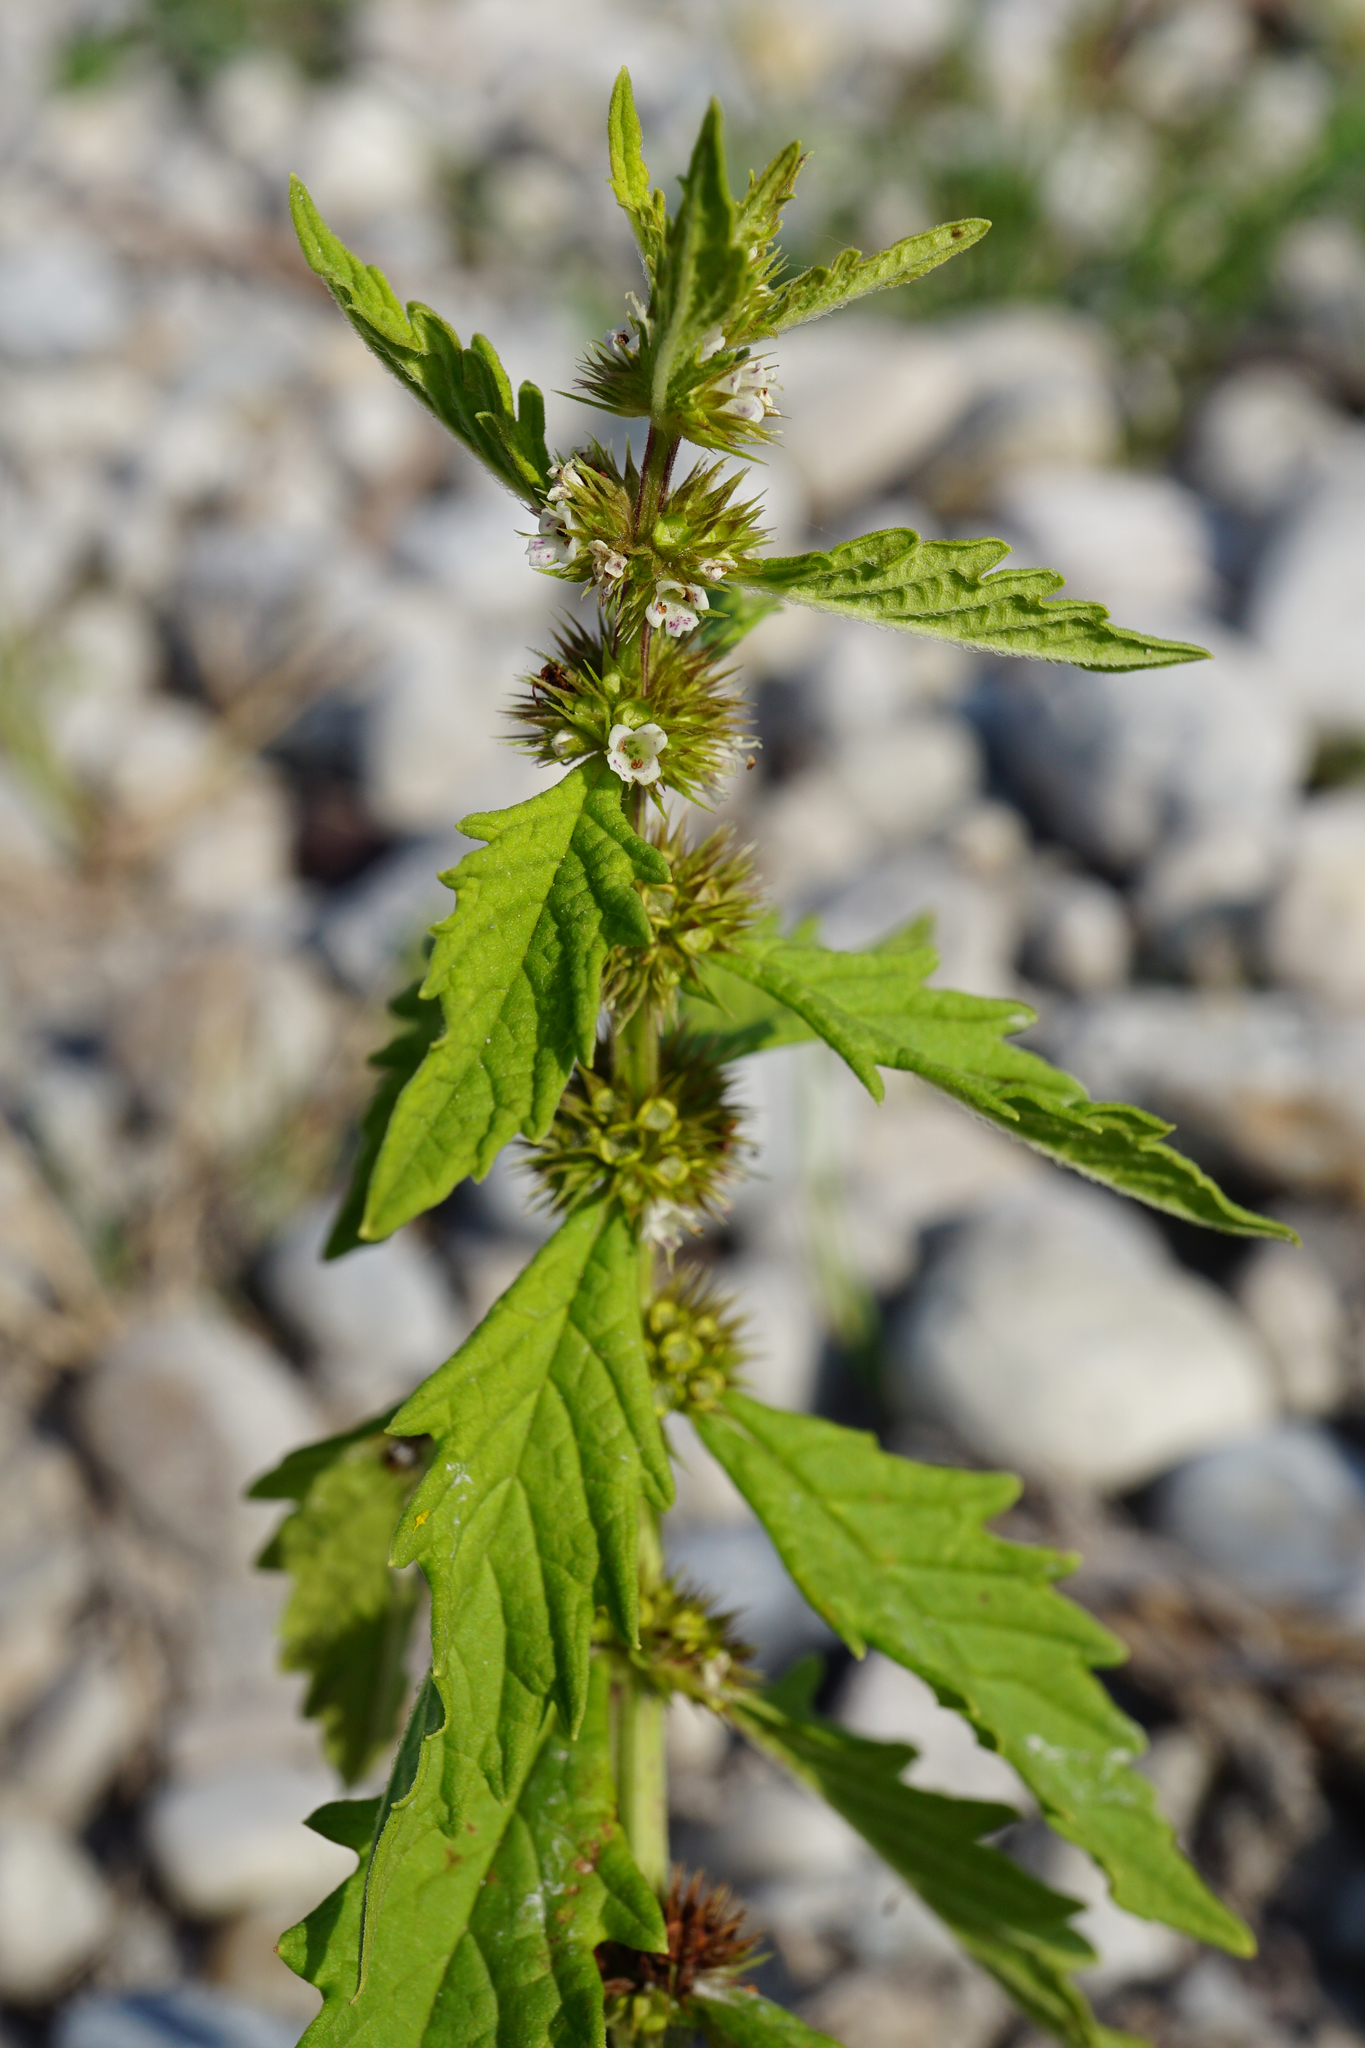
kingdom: Plantae
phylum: Tracheophyta
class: Magnoliopsida
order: Lamiales
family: Lamiaceae
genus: Lycopus
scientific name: Lycopus europaeus
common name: European bugleweed
